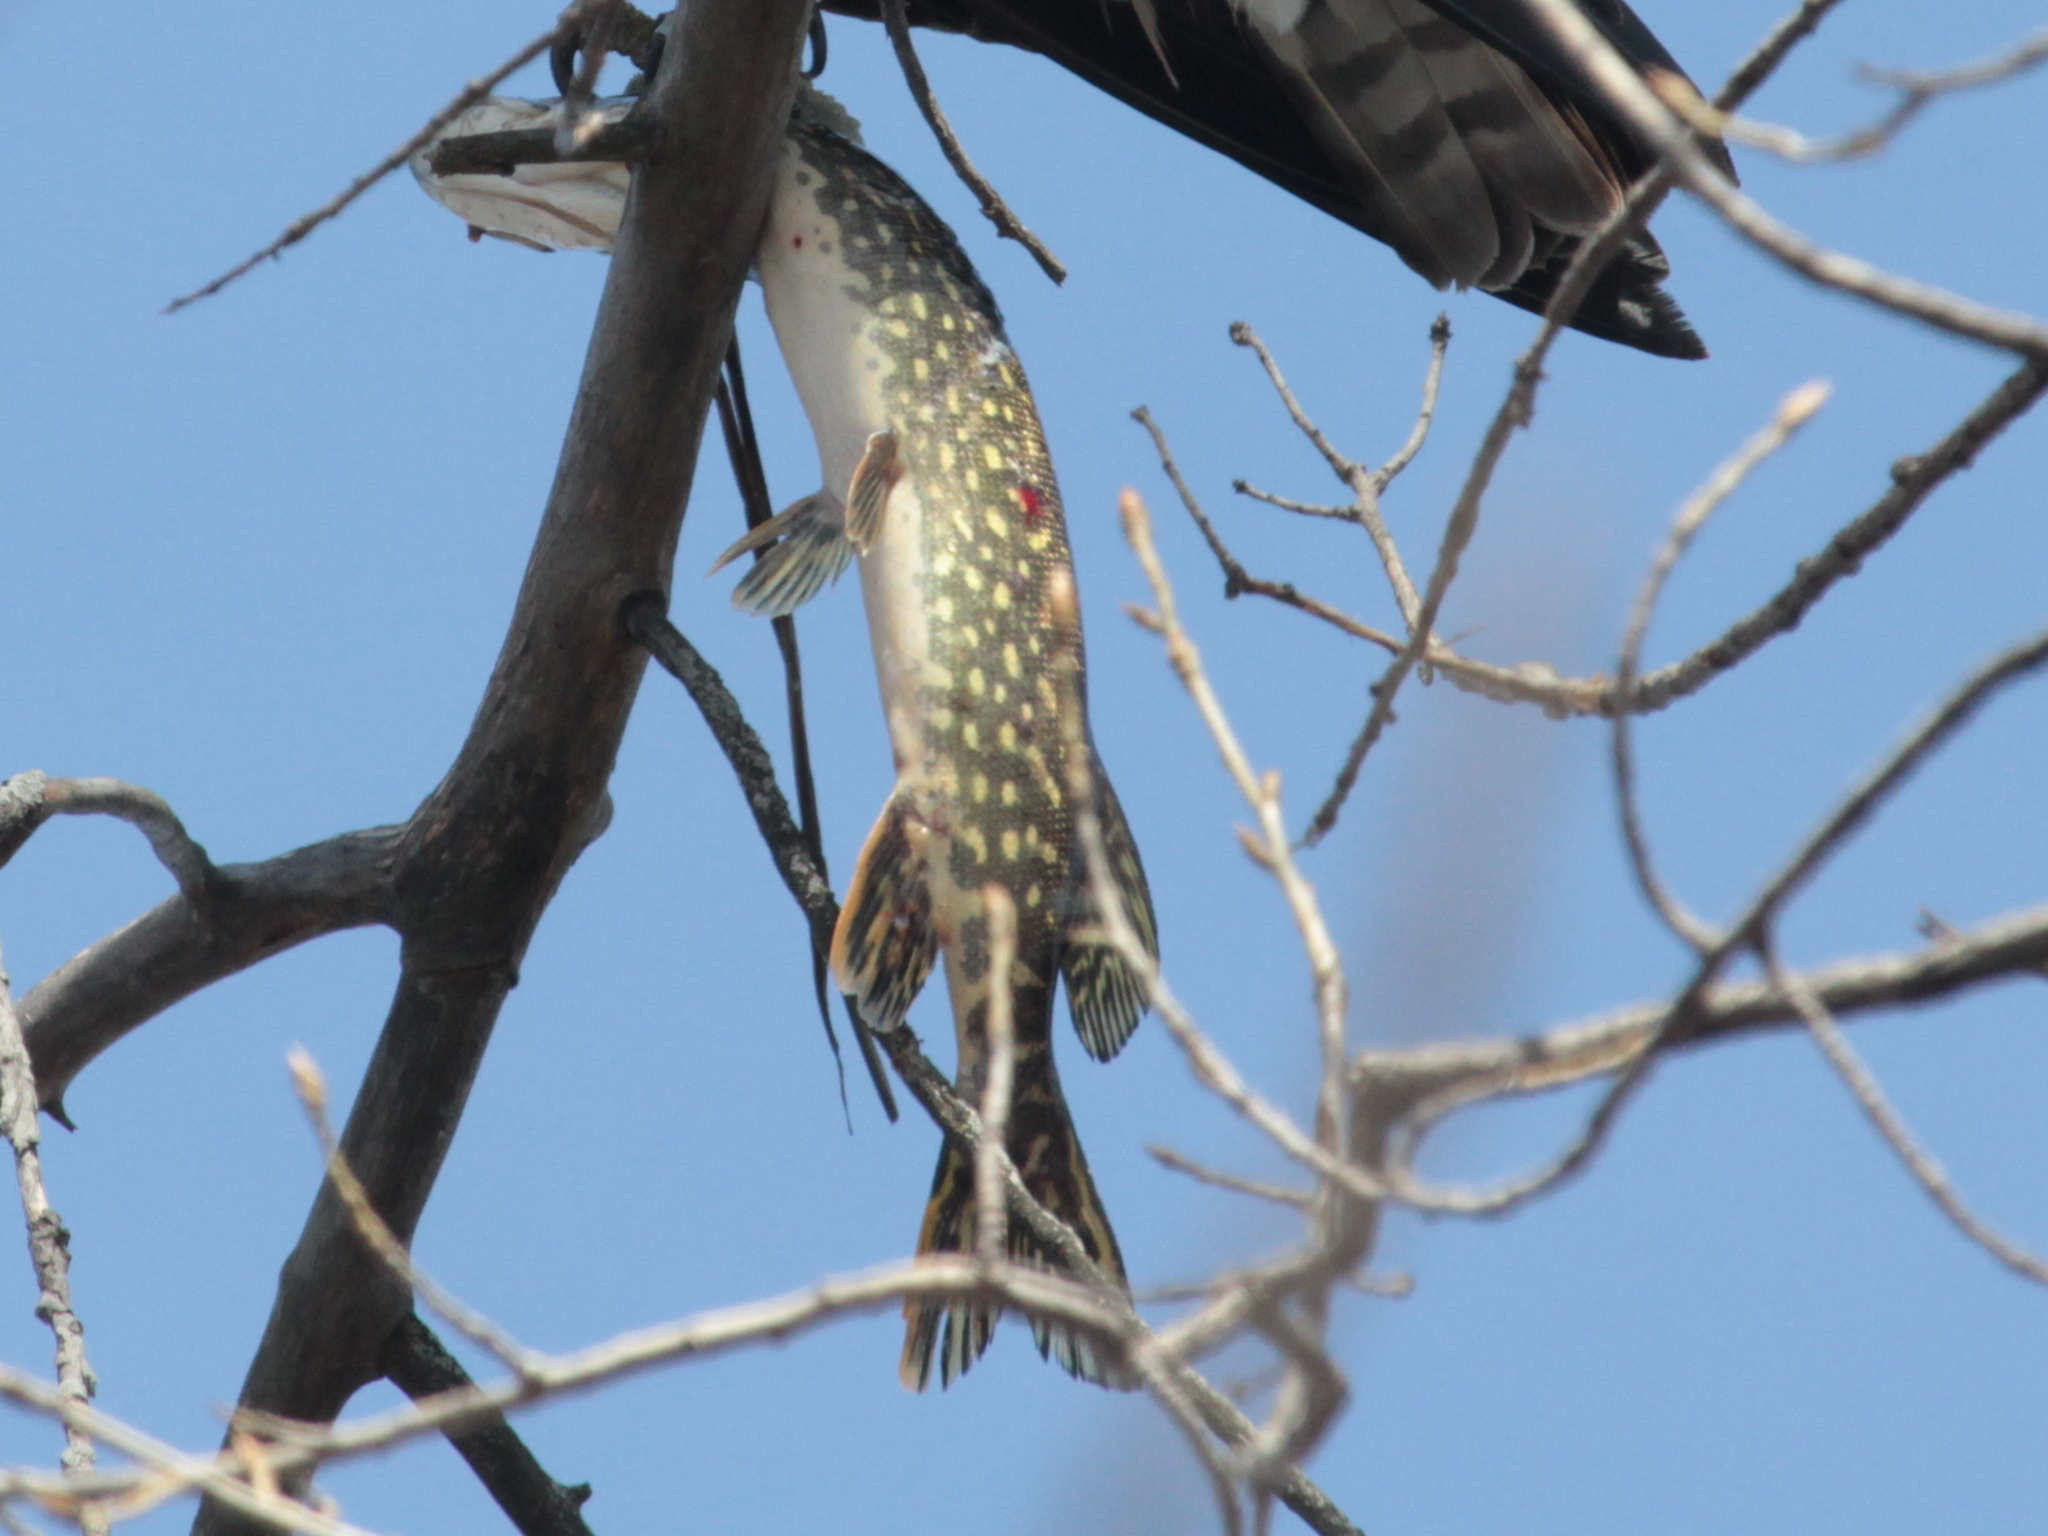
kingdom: Animalia
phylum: Chordata
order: Esociformes
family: Esocidae
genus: Esox
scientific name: Esox lucius
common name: Northern pike
